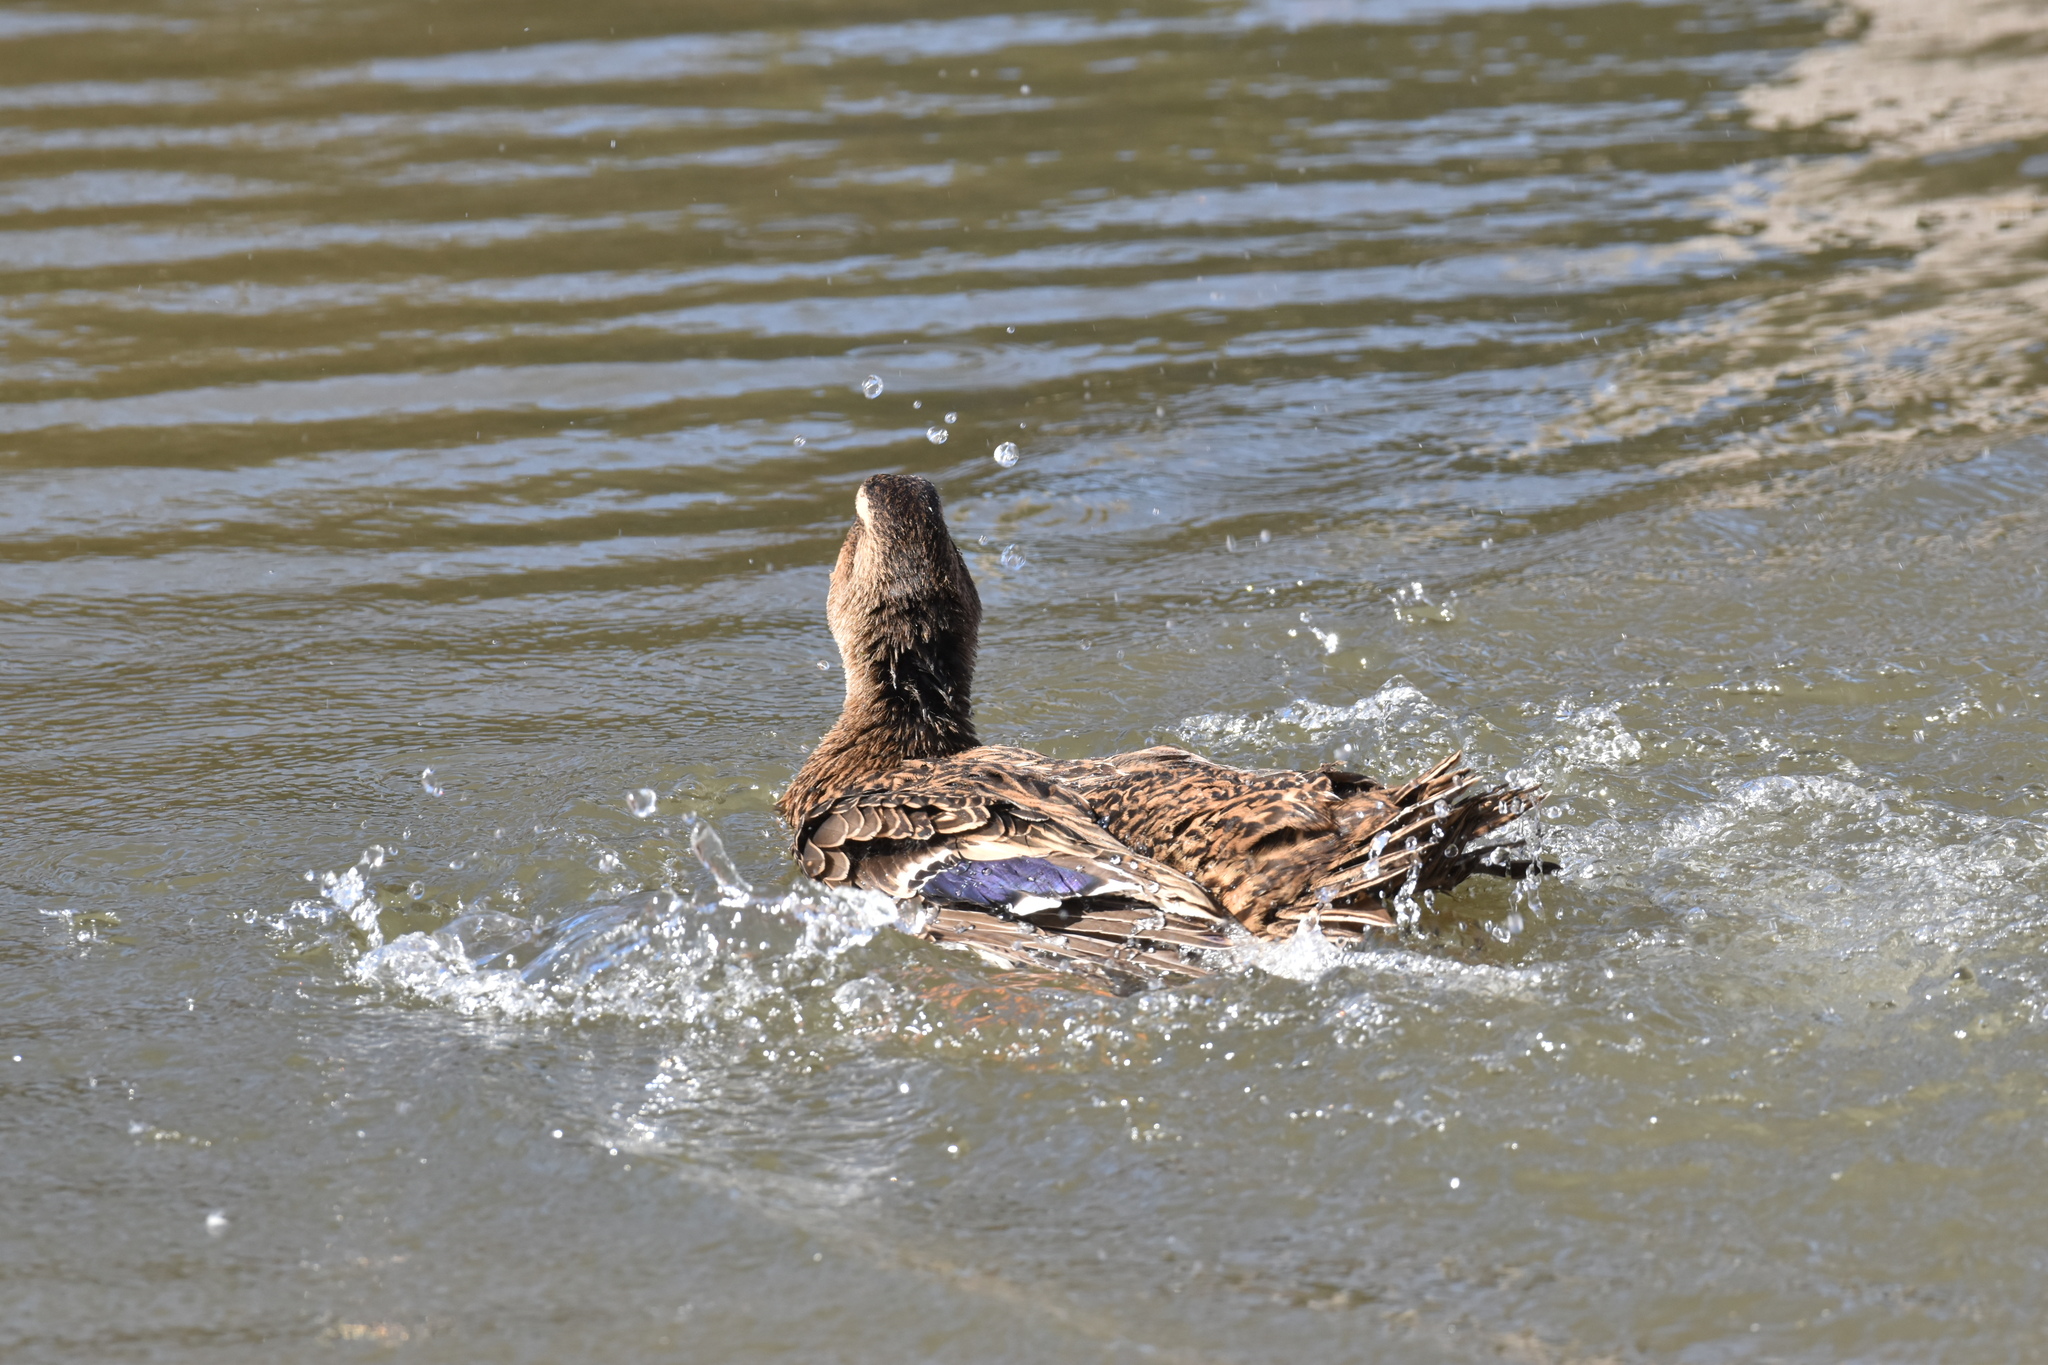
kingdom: Animalia
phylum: Chordata
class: Aves
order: Anseriformes
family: Anatidae
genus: Anas
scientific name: Anas platyrhynchos
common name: Mallard
